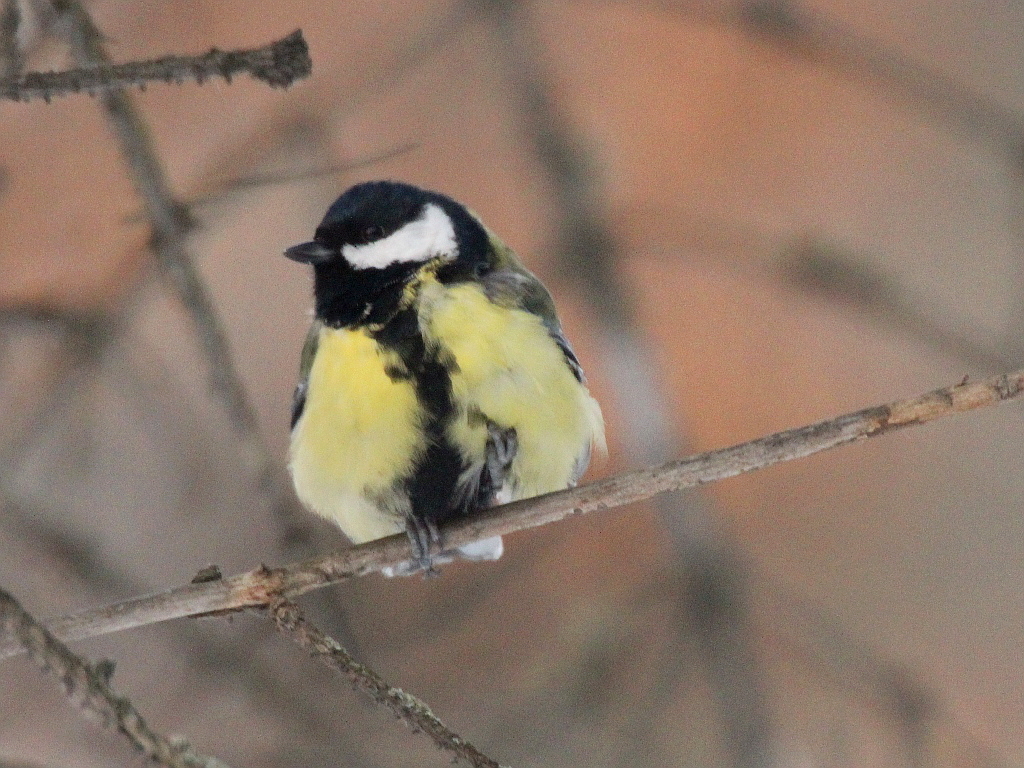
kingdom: Animalia
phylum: Chordata
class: Aves
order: Passeriformes
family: Paridae
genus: Parus
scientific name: Parus major
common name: Great tit
